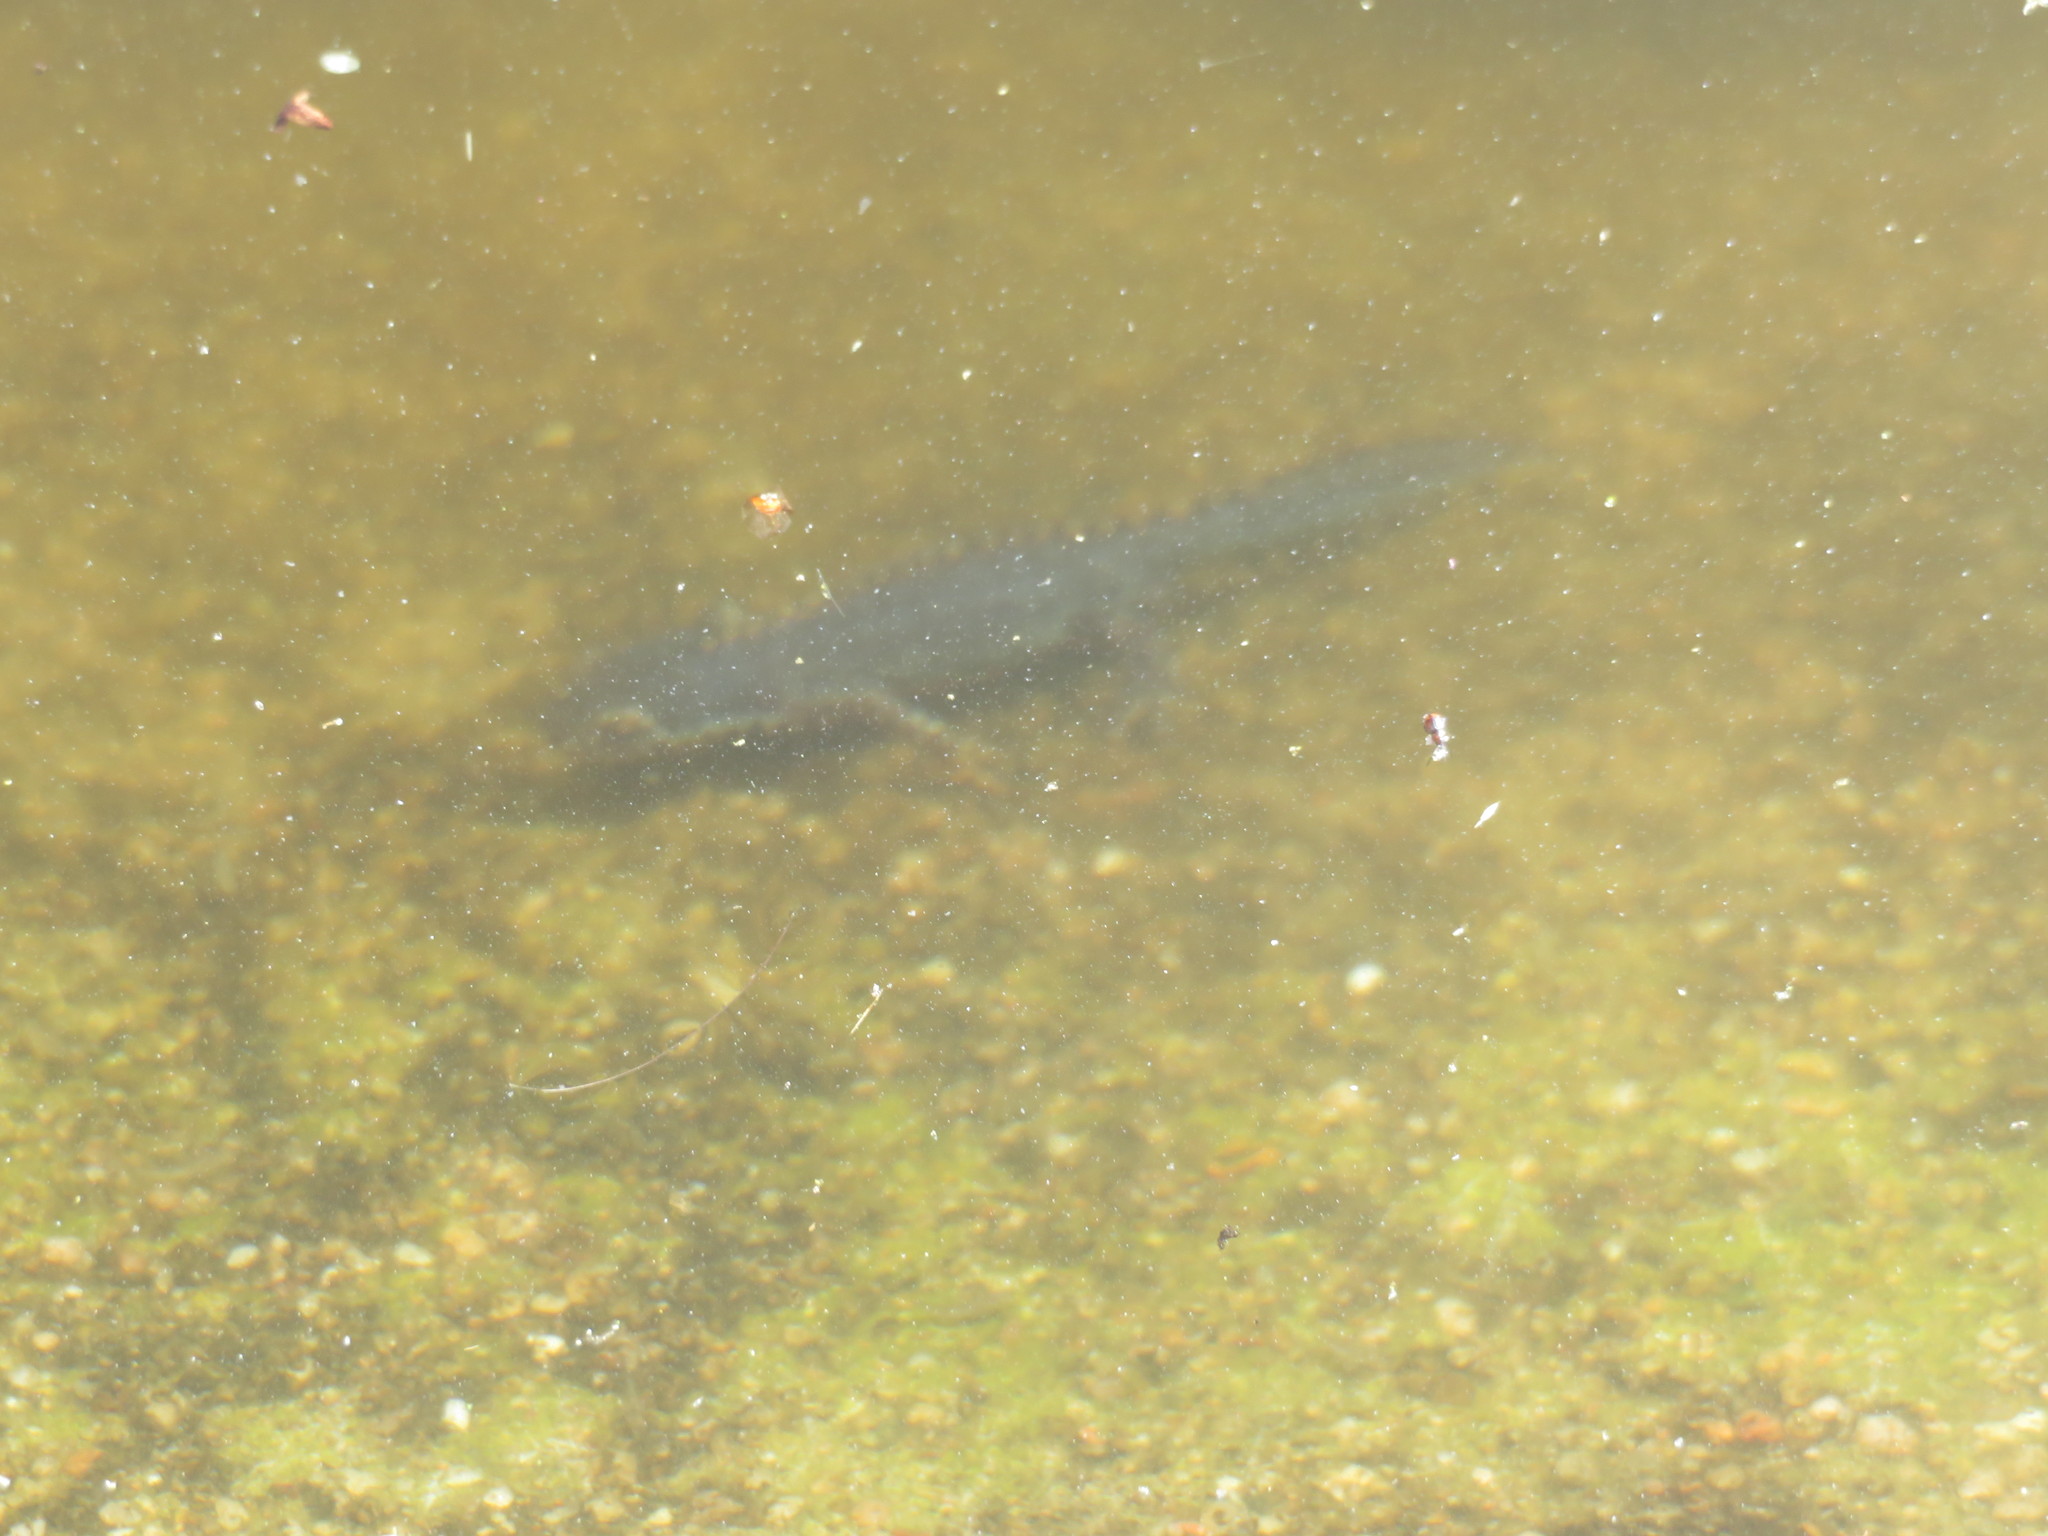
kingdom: Animalia
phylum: Chordata
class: Amphibia
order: Caudata
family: Salamandridae
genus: Ichthyosaura
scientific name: Ichthyosaura alpestris
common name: Alpine newt
